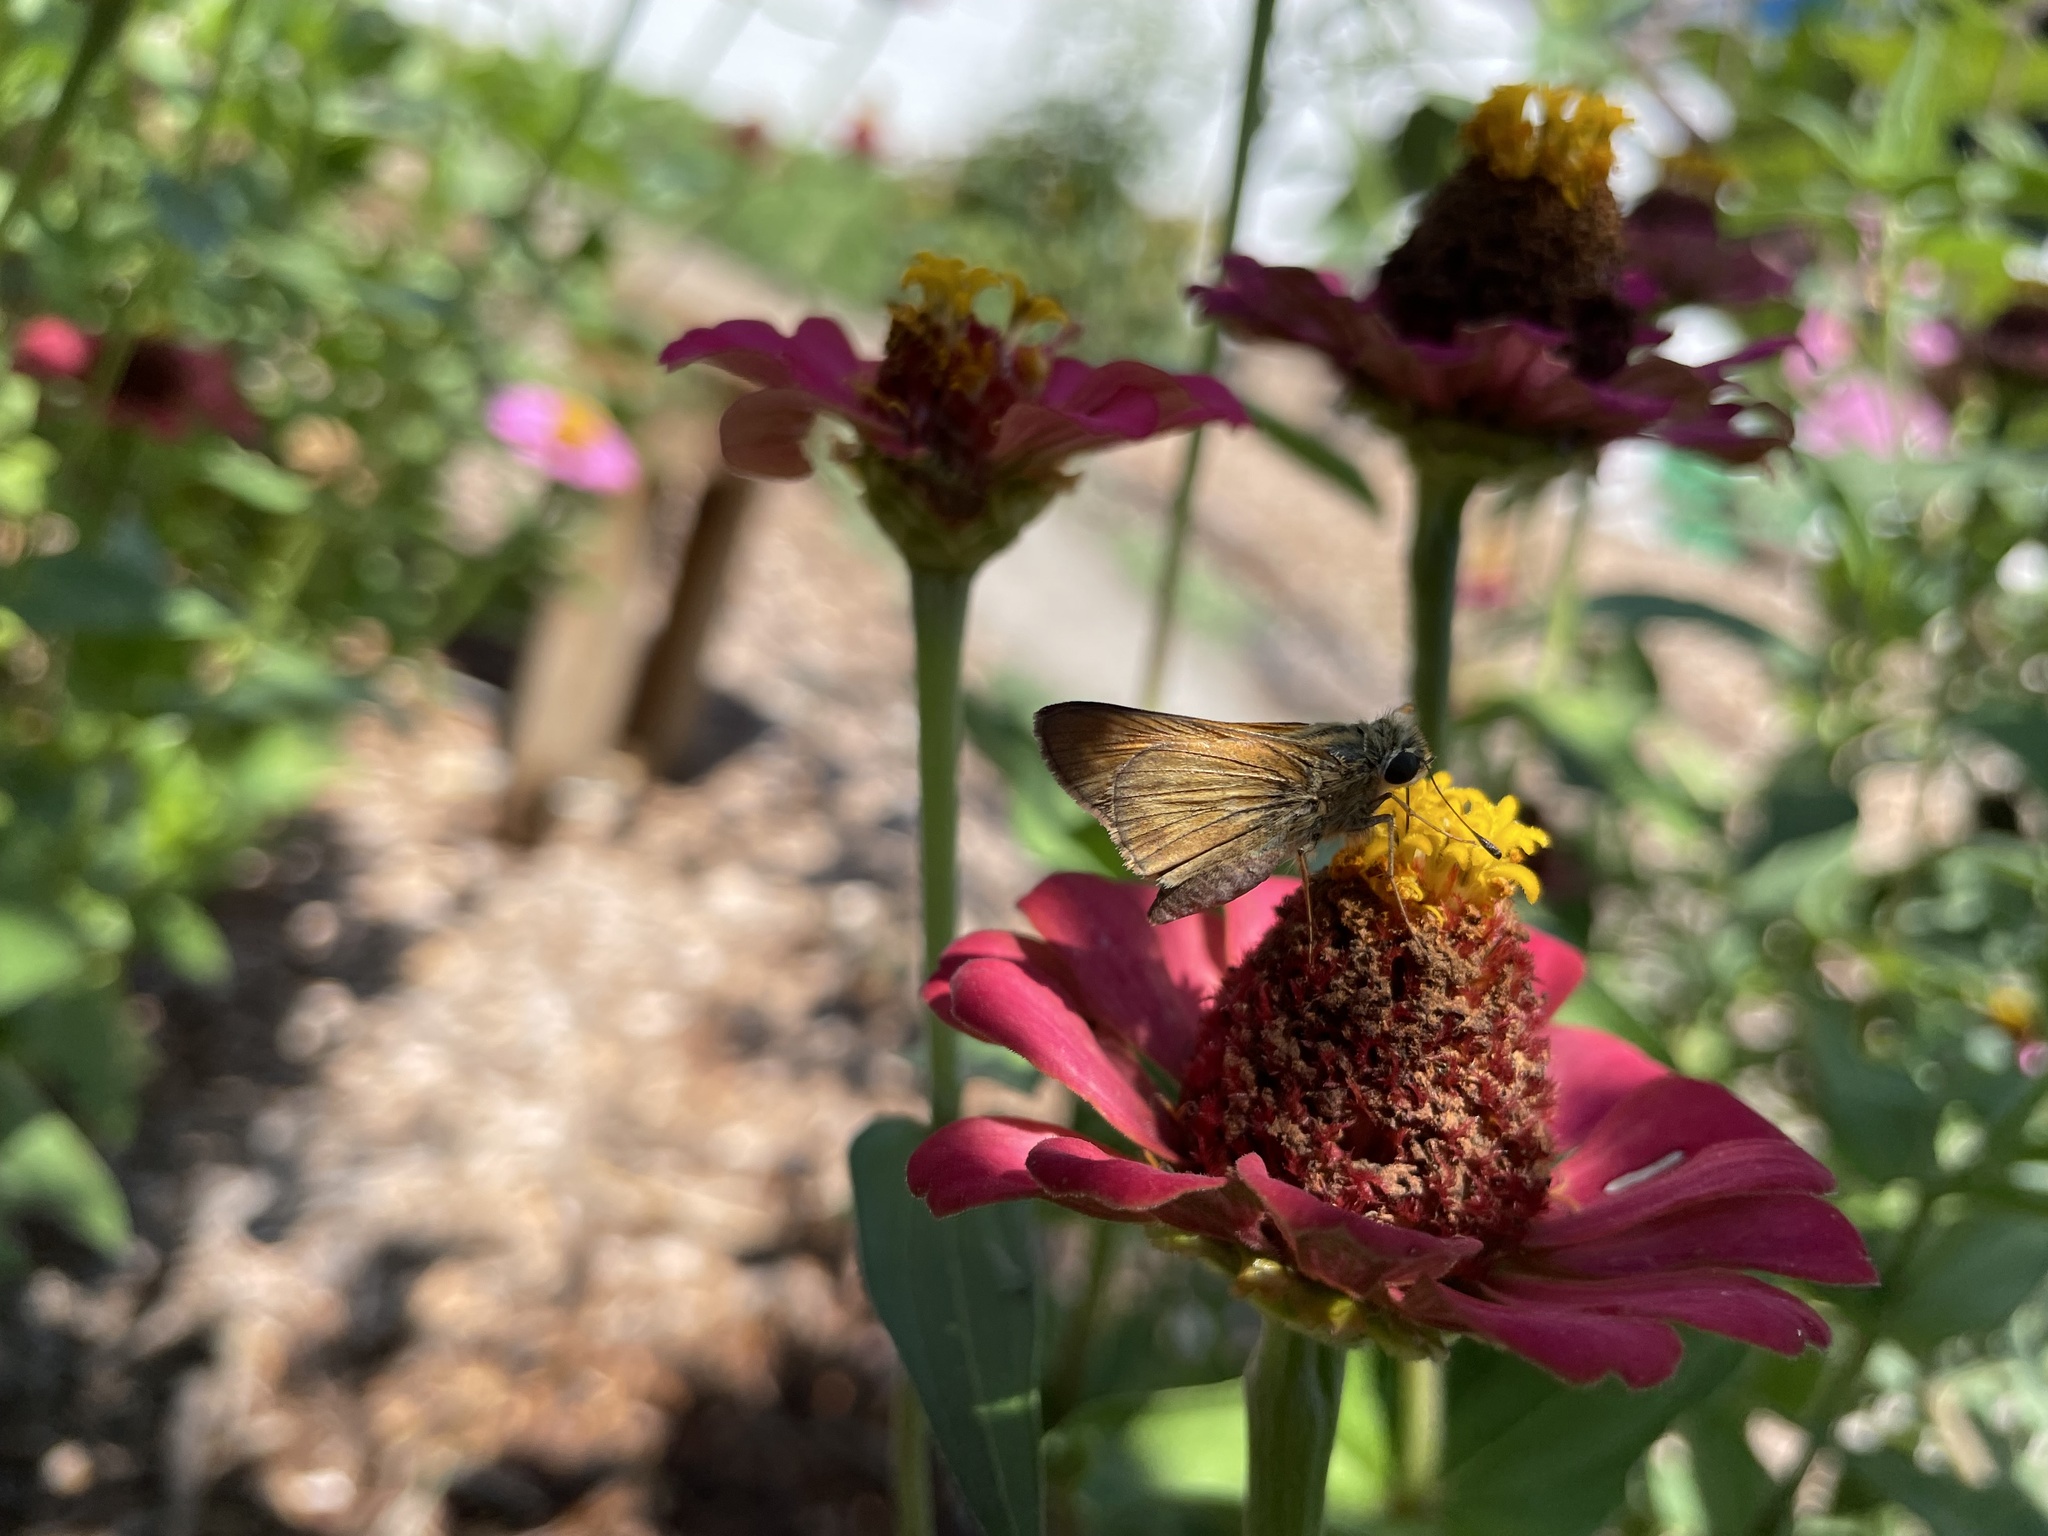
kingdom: Animalia
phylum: Arthropoda
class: Insecta
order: Lepidoptera
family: Hesperiidae
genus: Atalopedes
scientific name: Atalopedes
